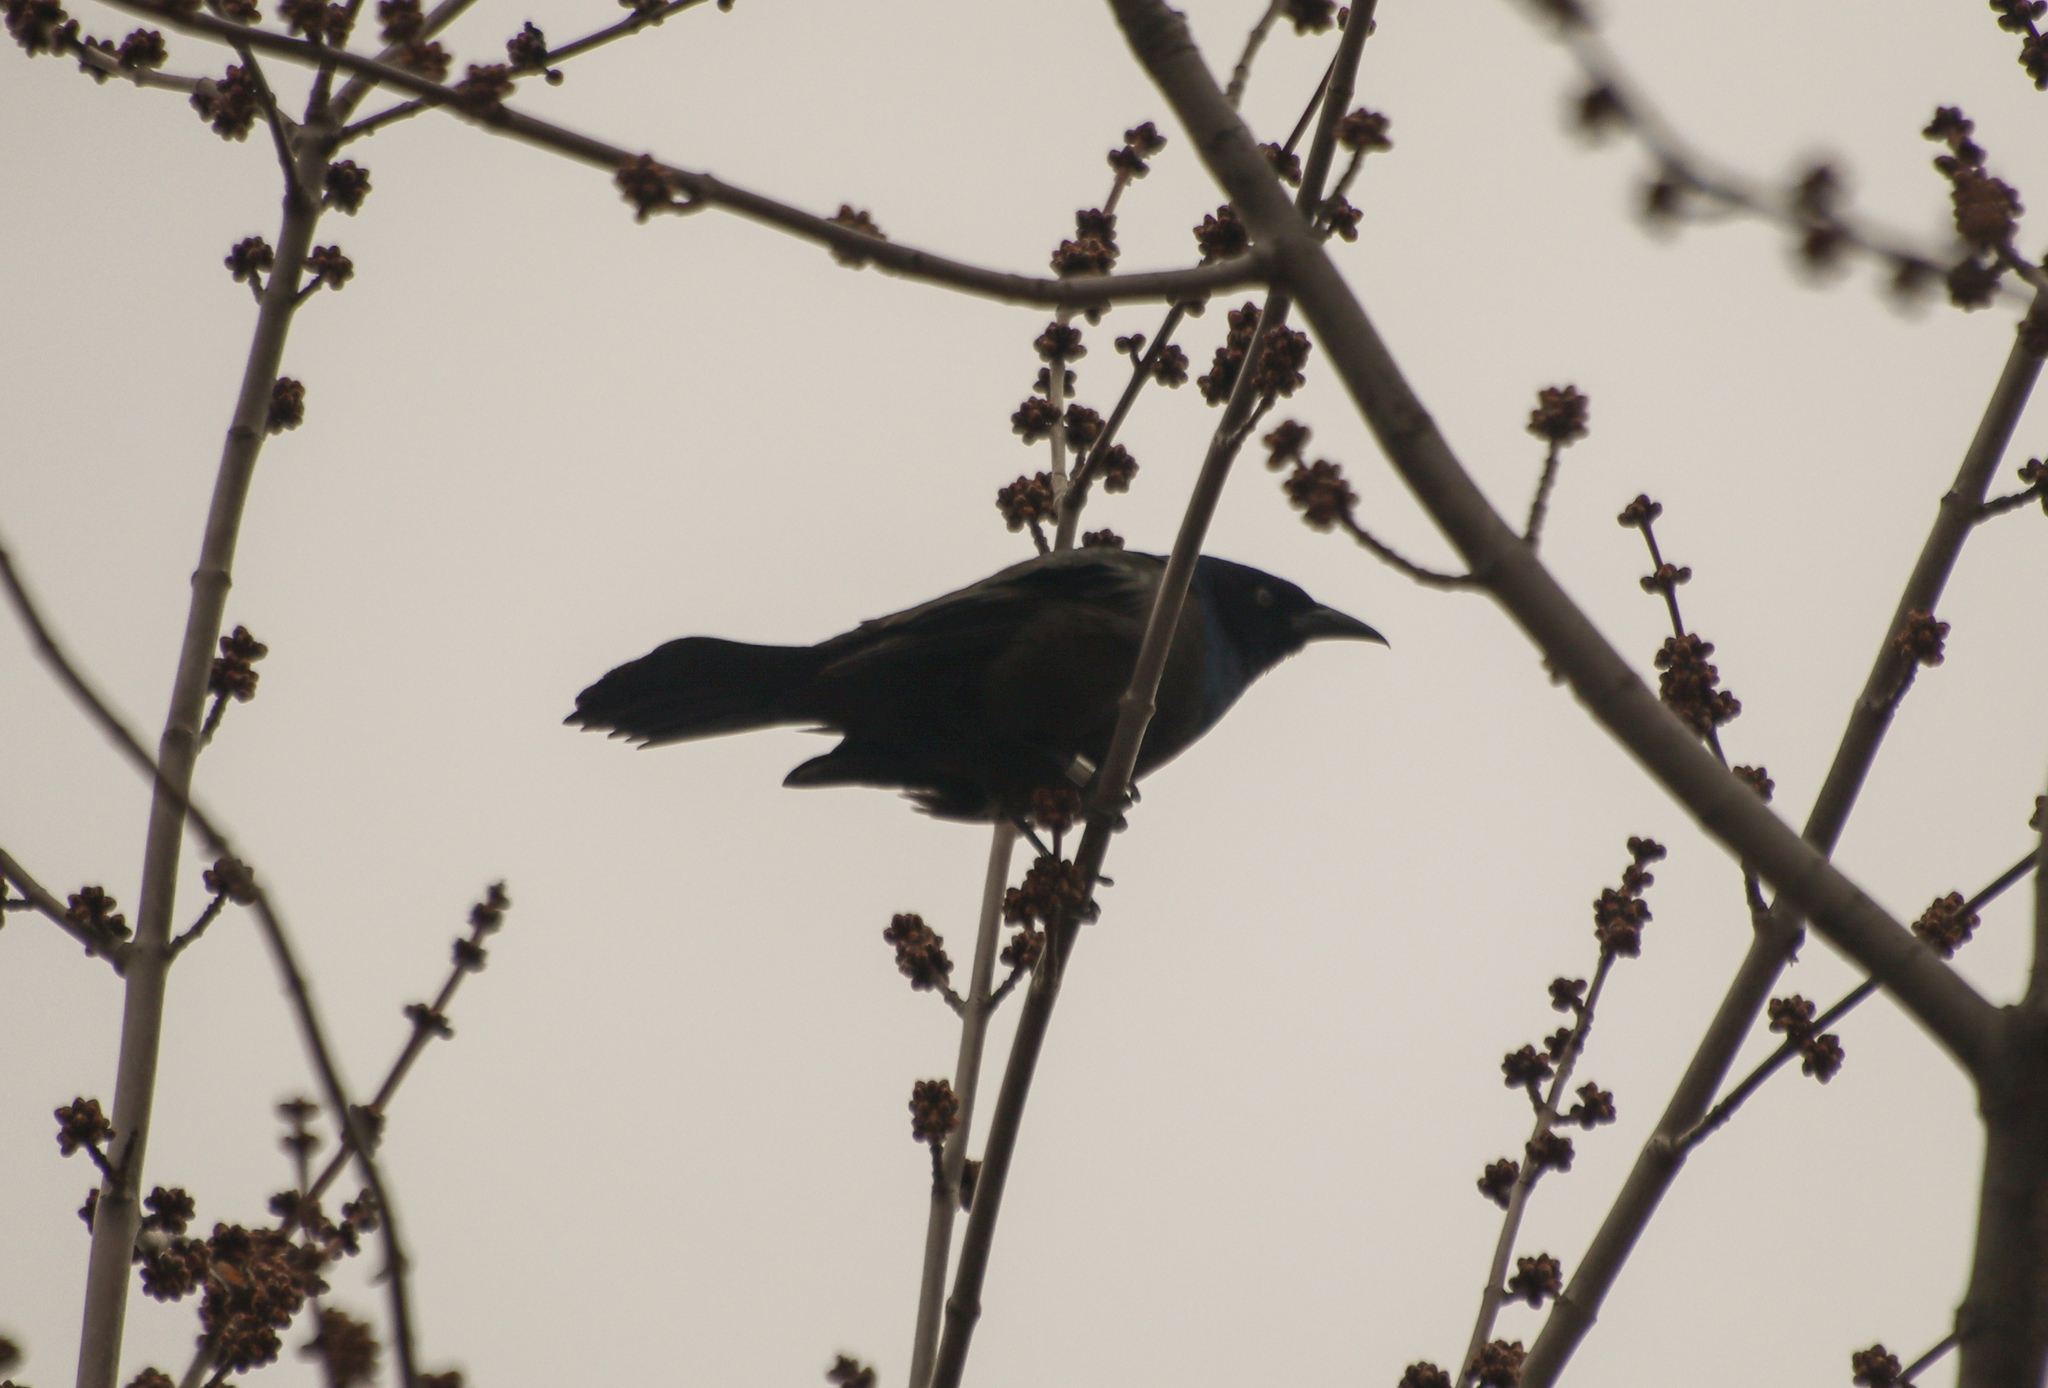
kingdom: Animalia
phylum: Chordata
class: Aves
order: Passeriformes
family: Icteridae
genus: Quiscalus
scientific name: Quiscalus quiscula
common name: Common grackle
